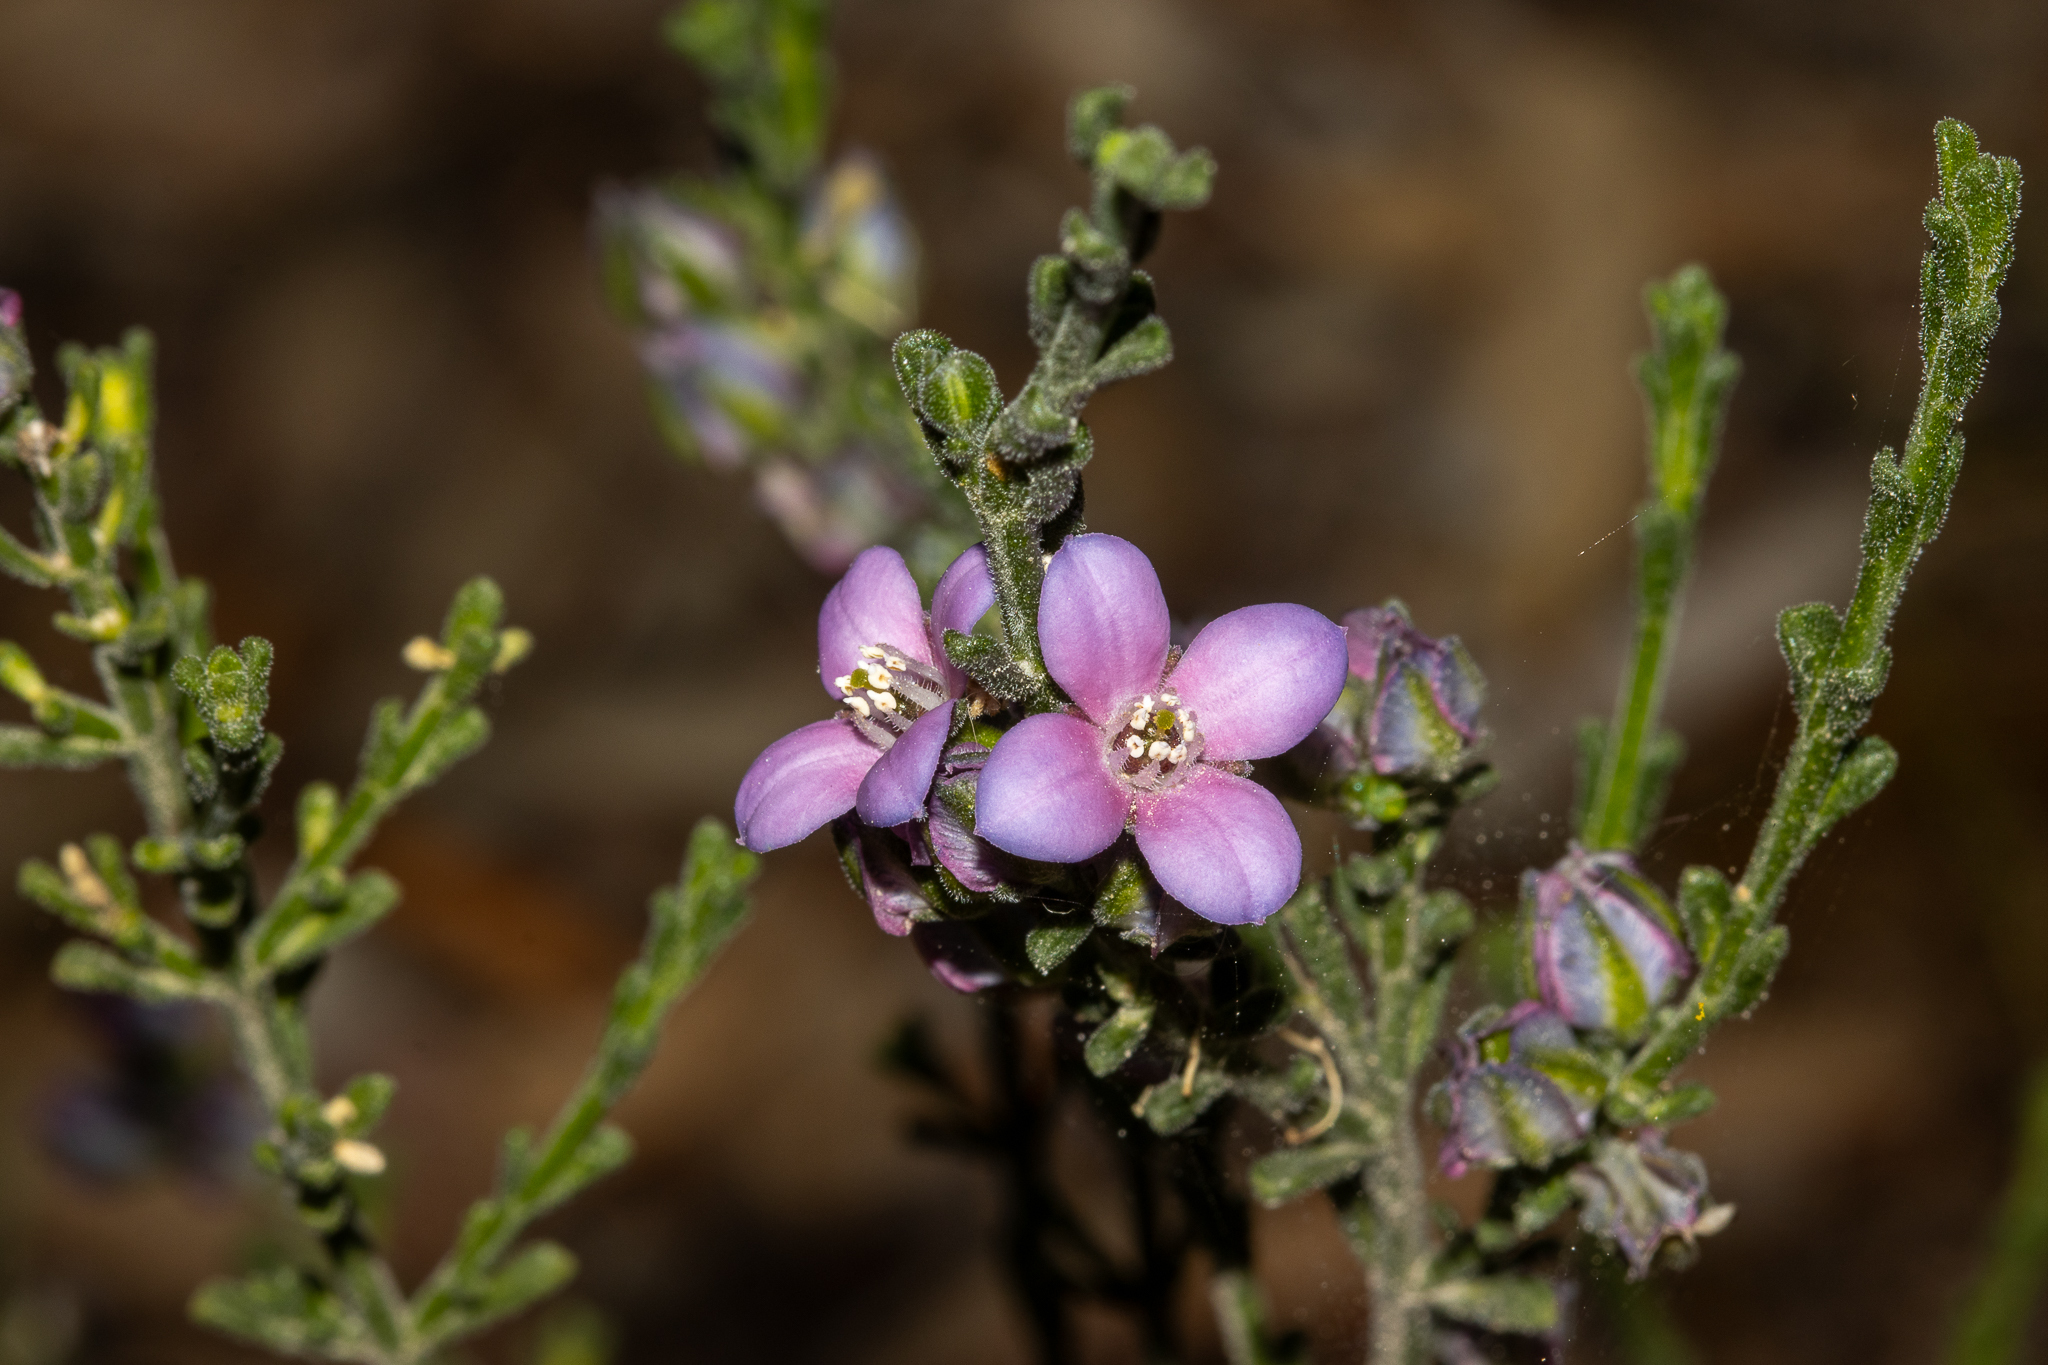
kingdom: Plantae
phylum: Tracheophyta
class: Magnoliopsida
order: Sapindales
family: Rutaceae
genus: Cyanothamnus
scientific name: Cyanothamnus coerulescens
